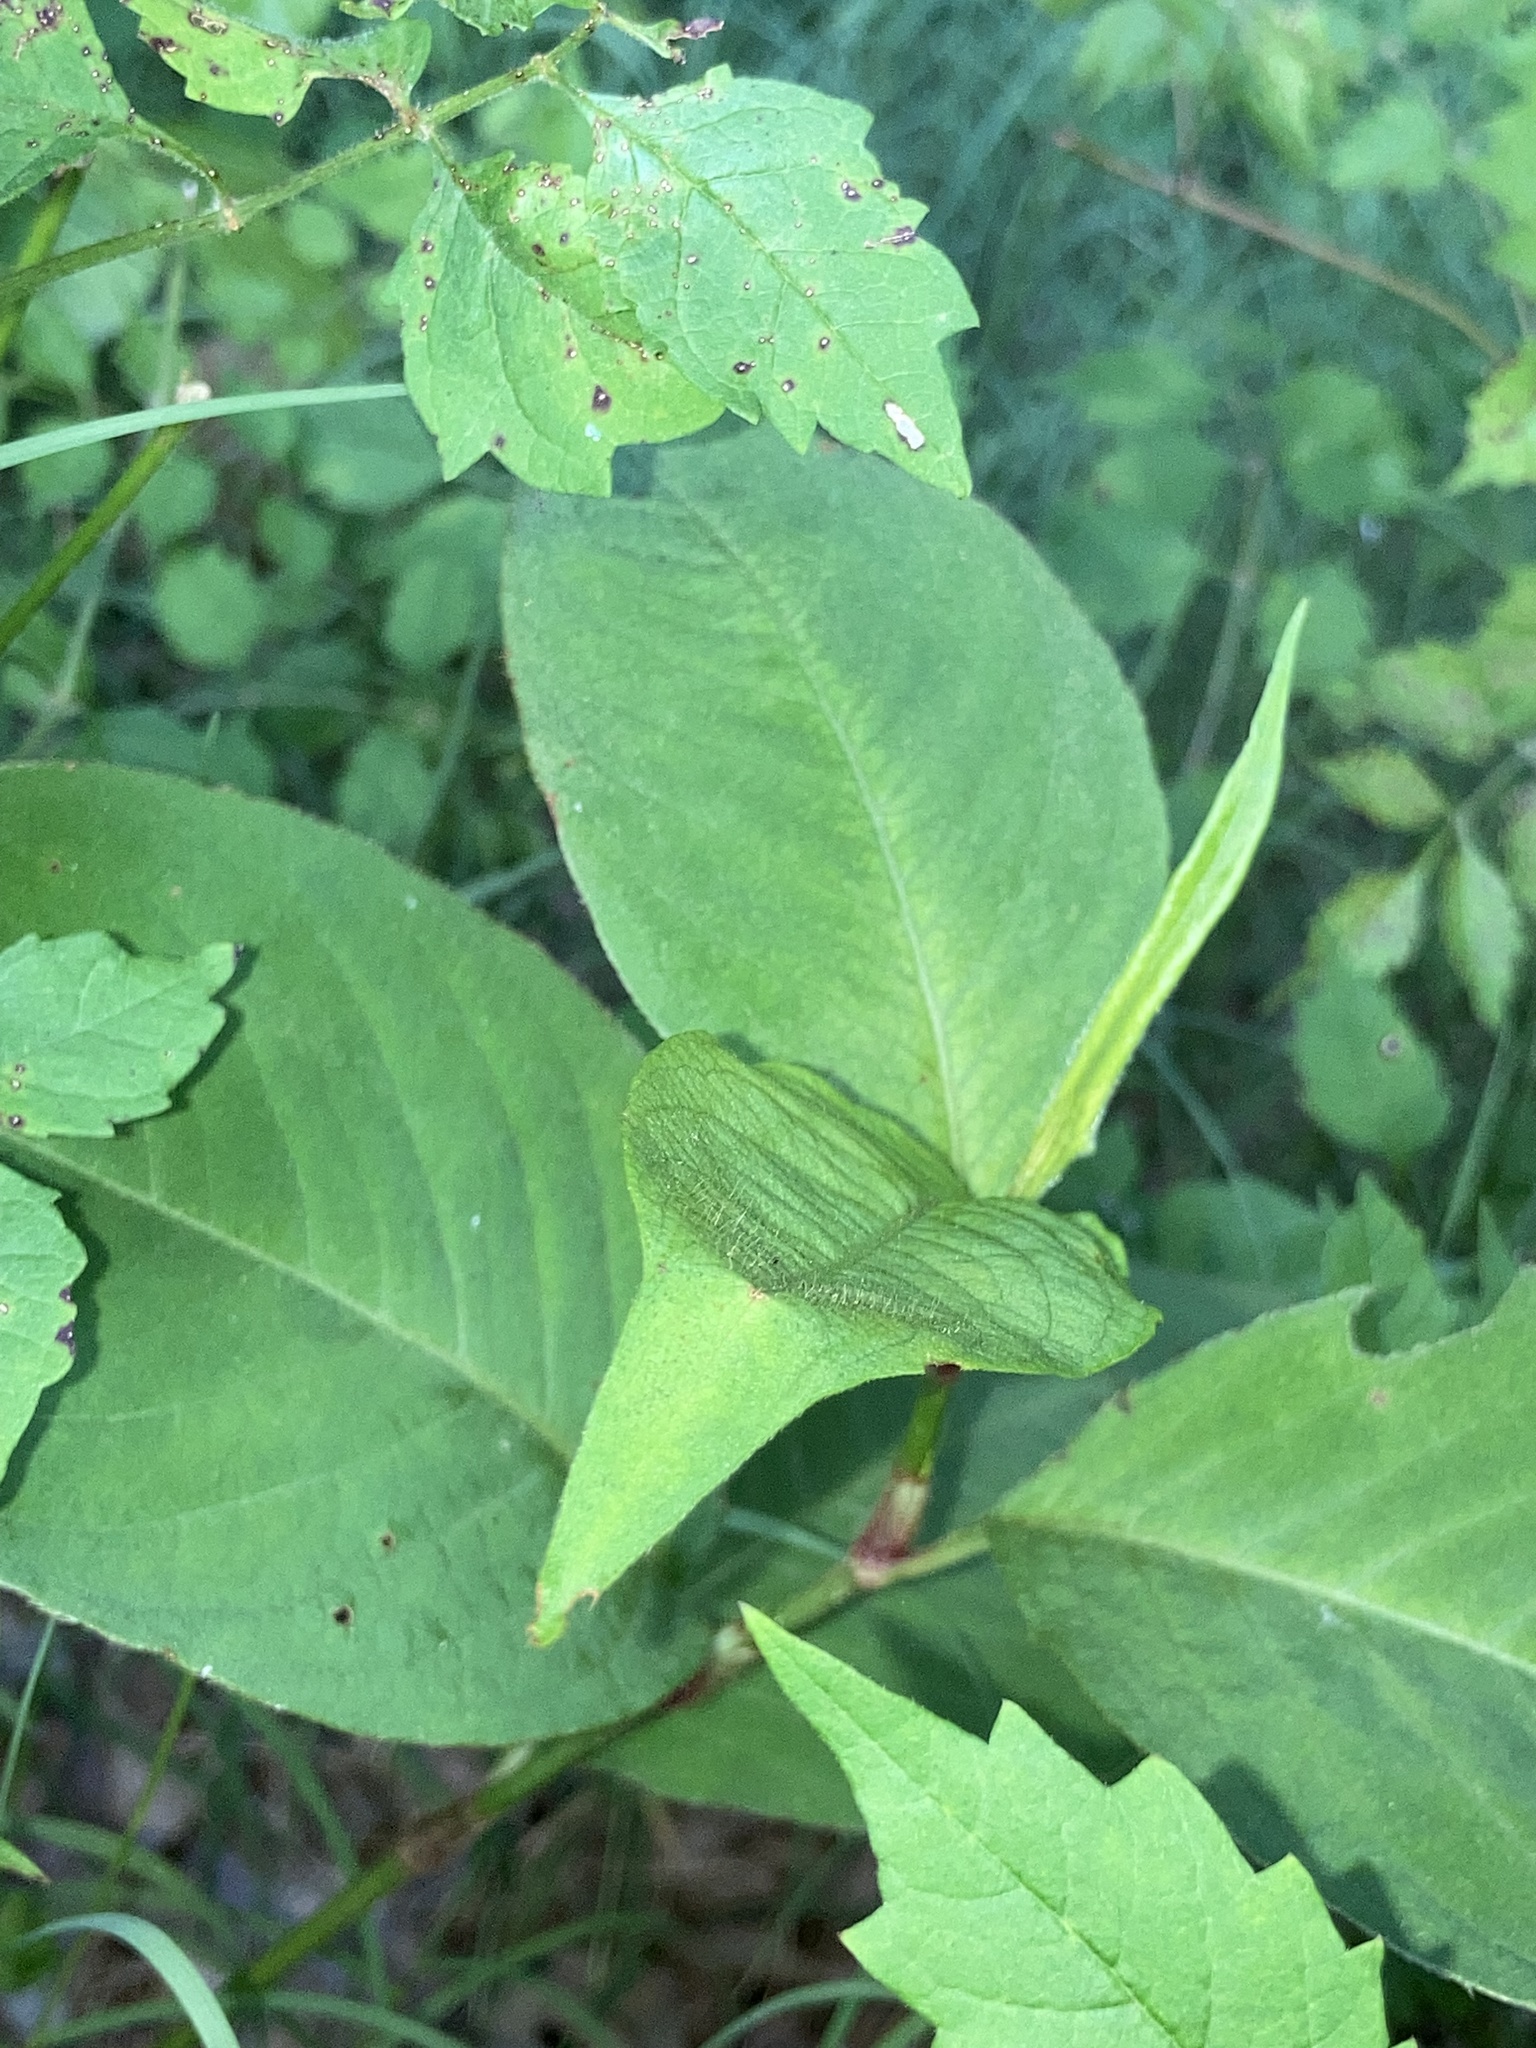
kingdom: Plantae
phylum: Tracheophyta
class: Magnoliopsida
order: Caryophyllales
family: Polygonaceae
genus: Persicaria
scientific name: Persicaria virginiana
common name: Jumpseed
